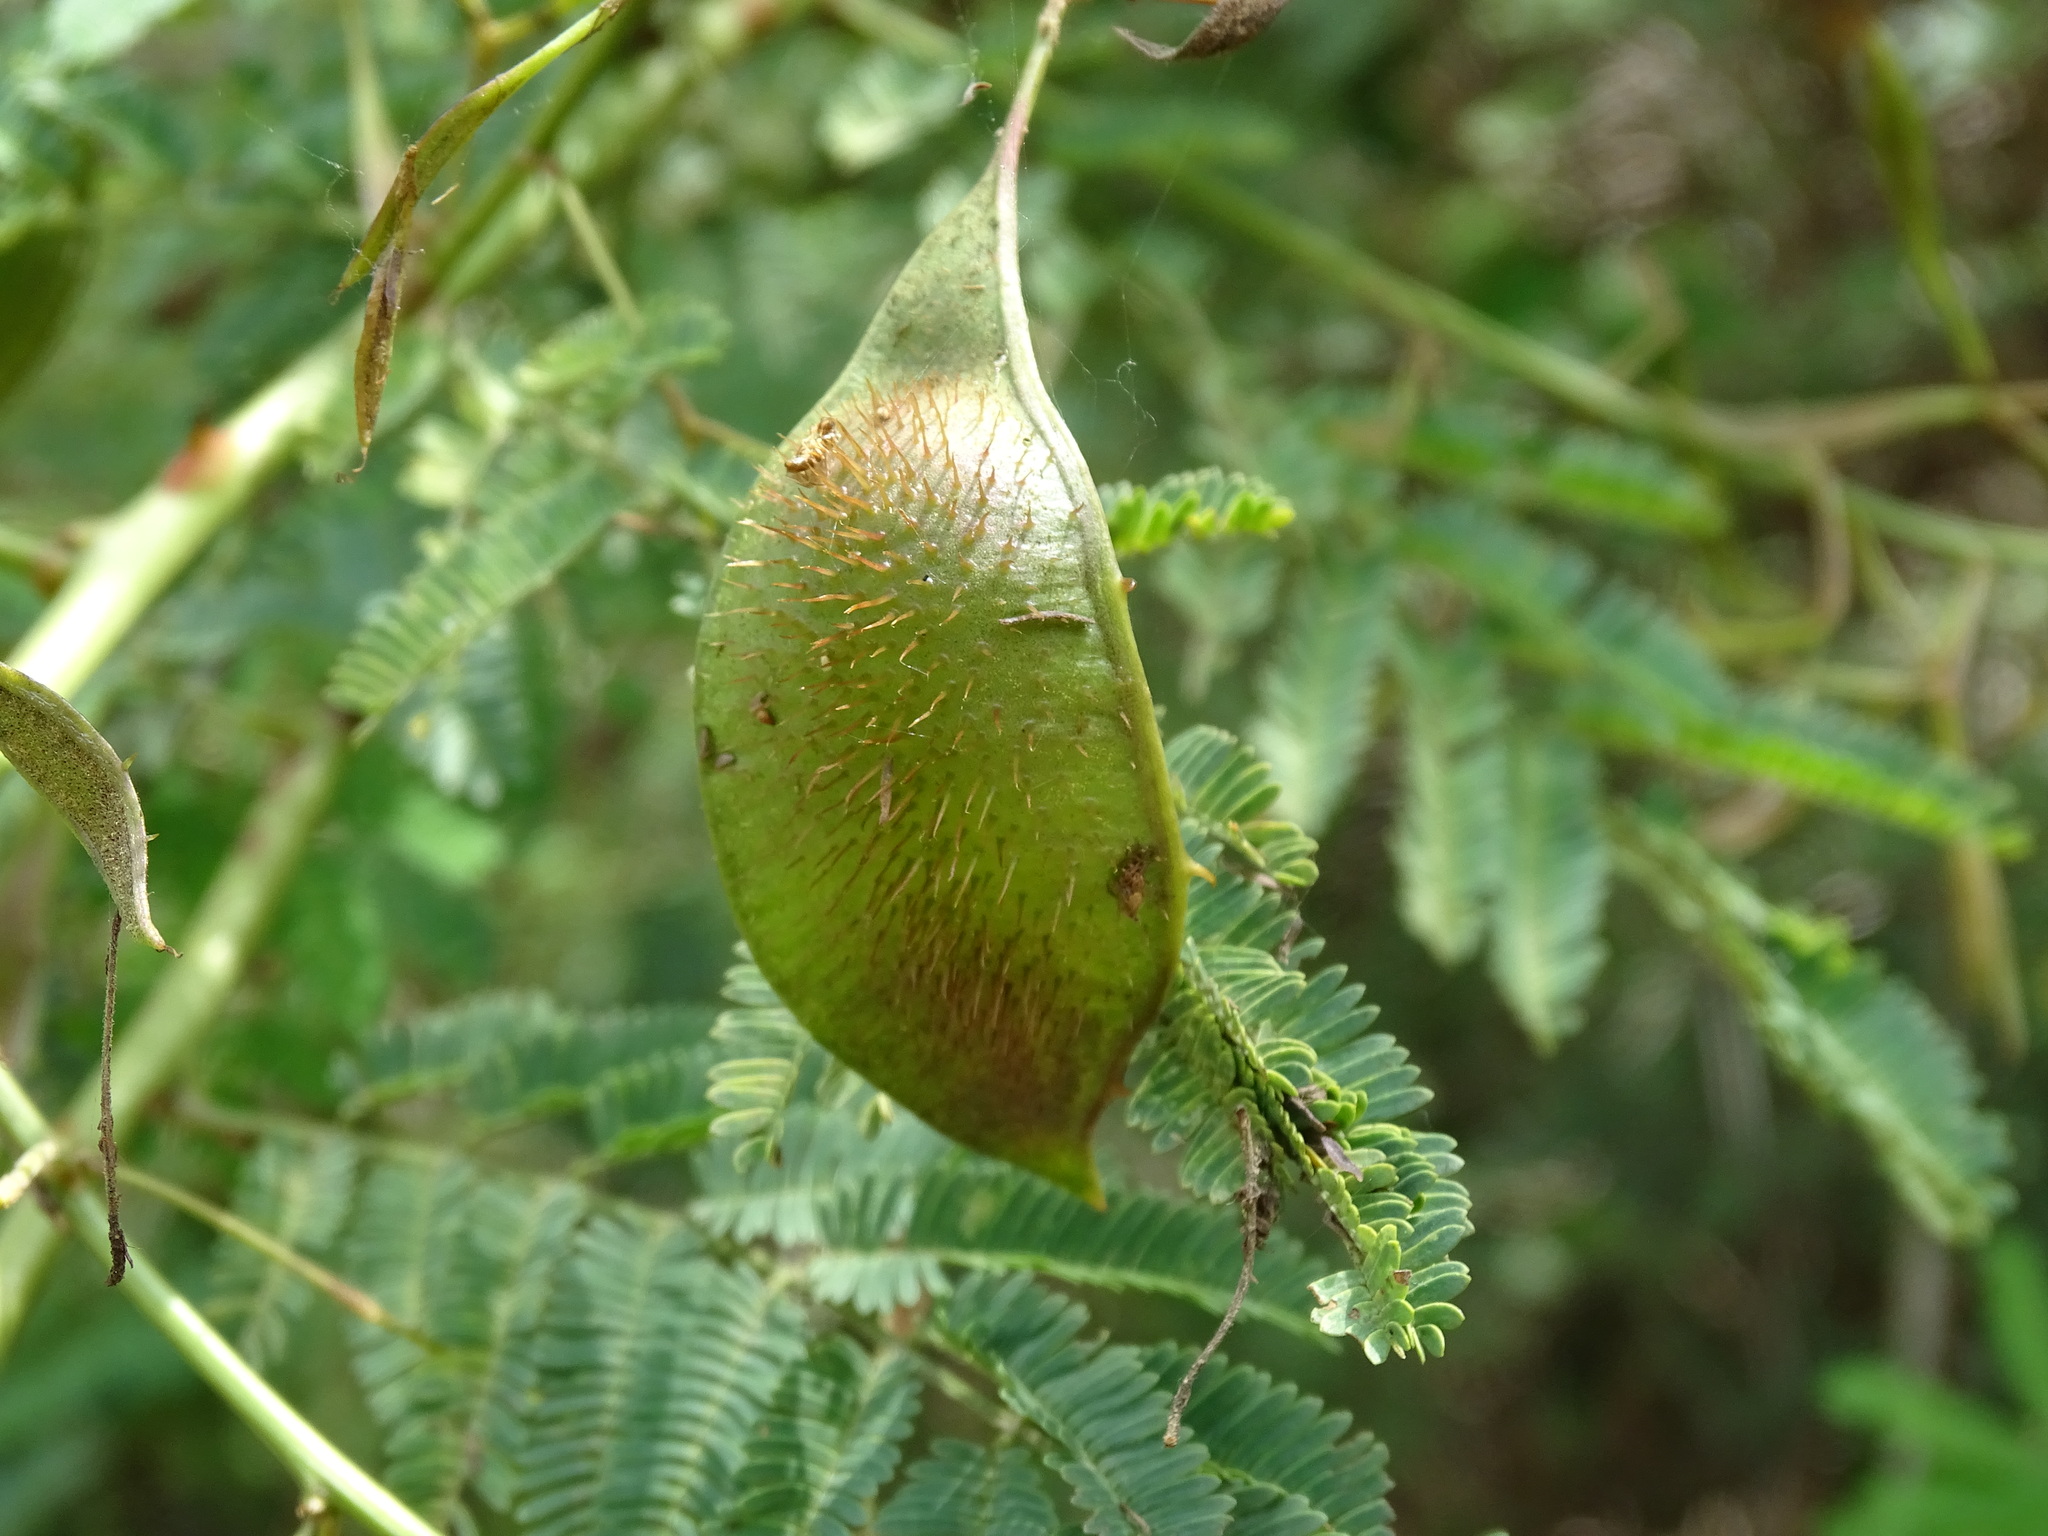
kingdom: Plantae
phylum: Tracheophyta
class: Magnoliopsida
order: Fabales
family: Fabaceae
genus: Mimosa
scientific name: Mimosa acantholoba
